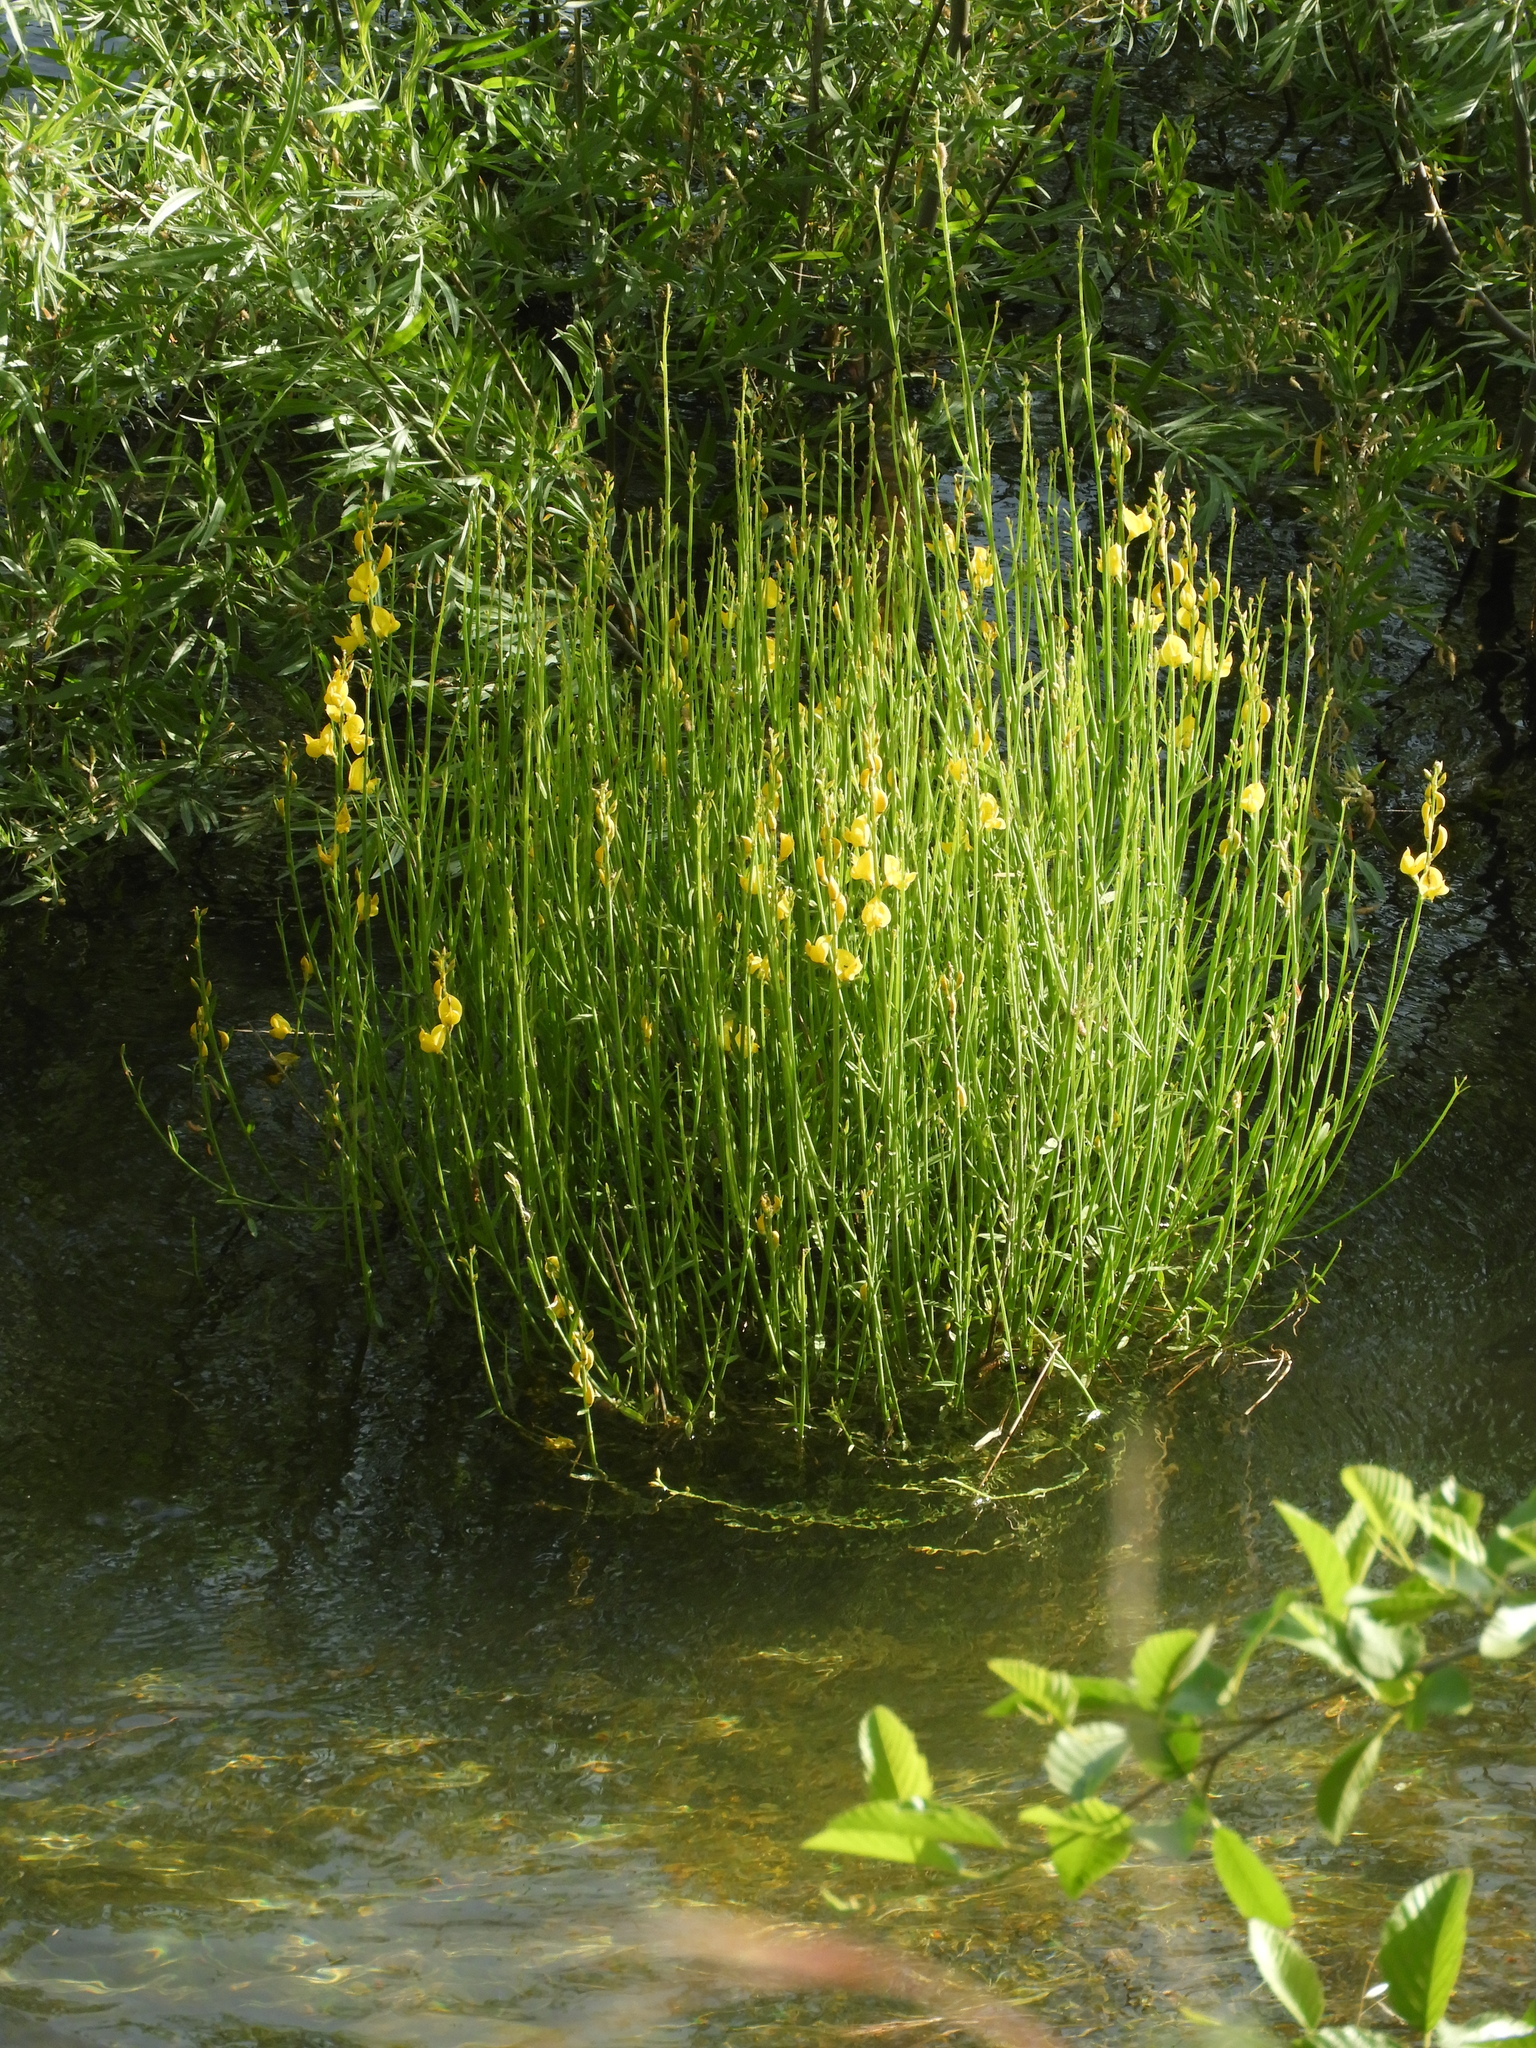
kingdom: Plantae
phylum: Tracheophyta
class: Magnoliopsida
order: Fabales
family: Fabaceae
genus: Spartium
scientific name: Spartium junceum
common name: Spanish broom
